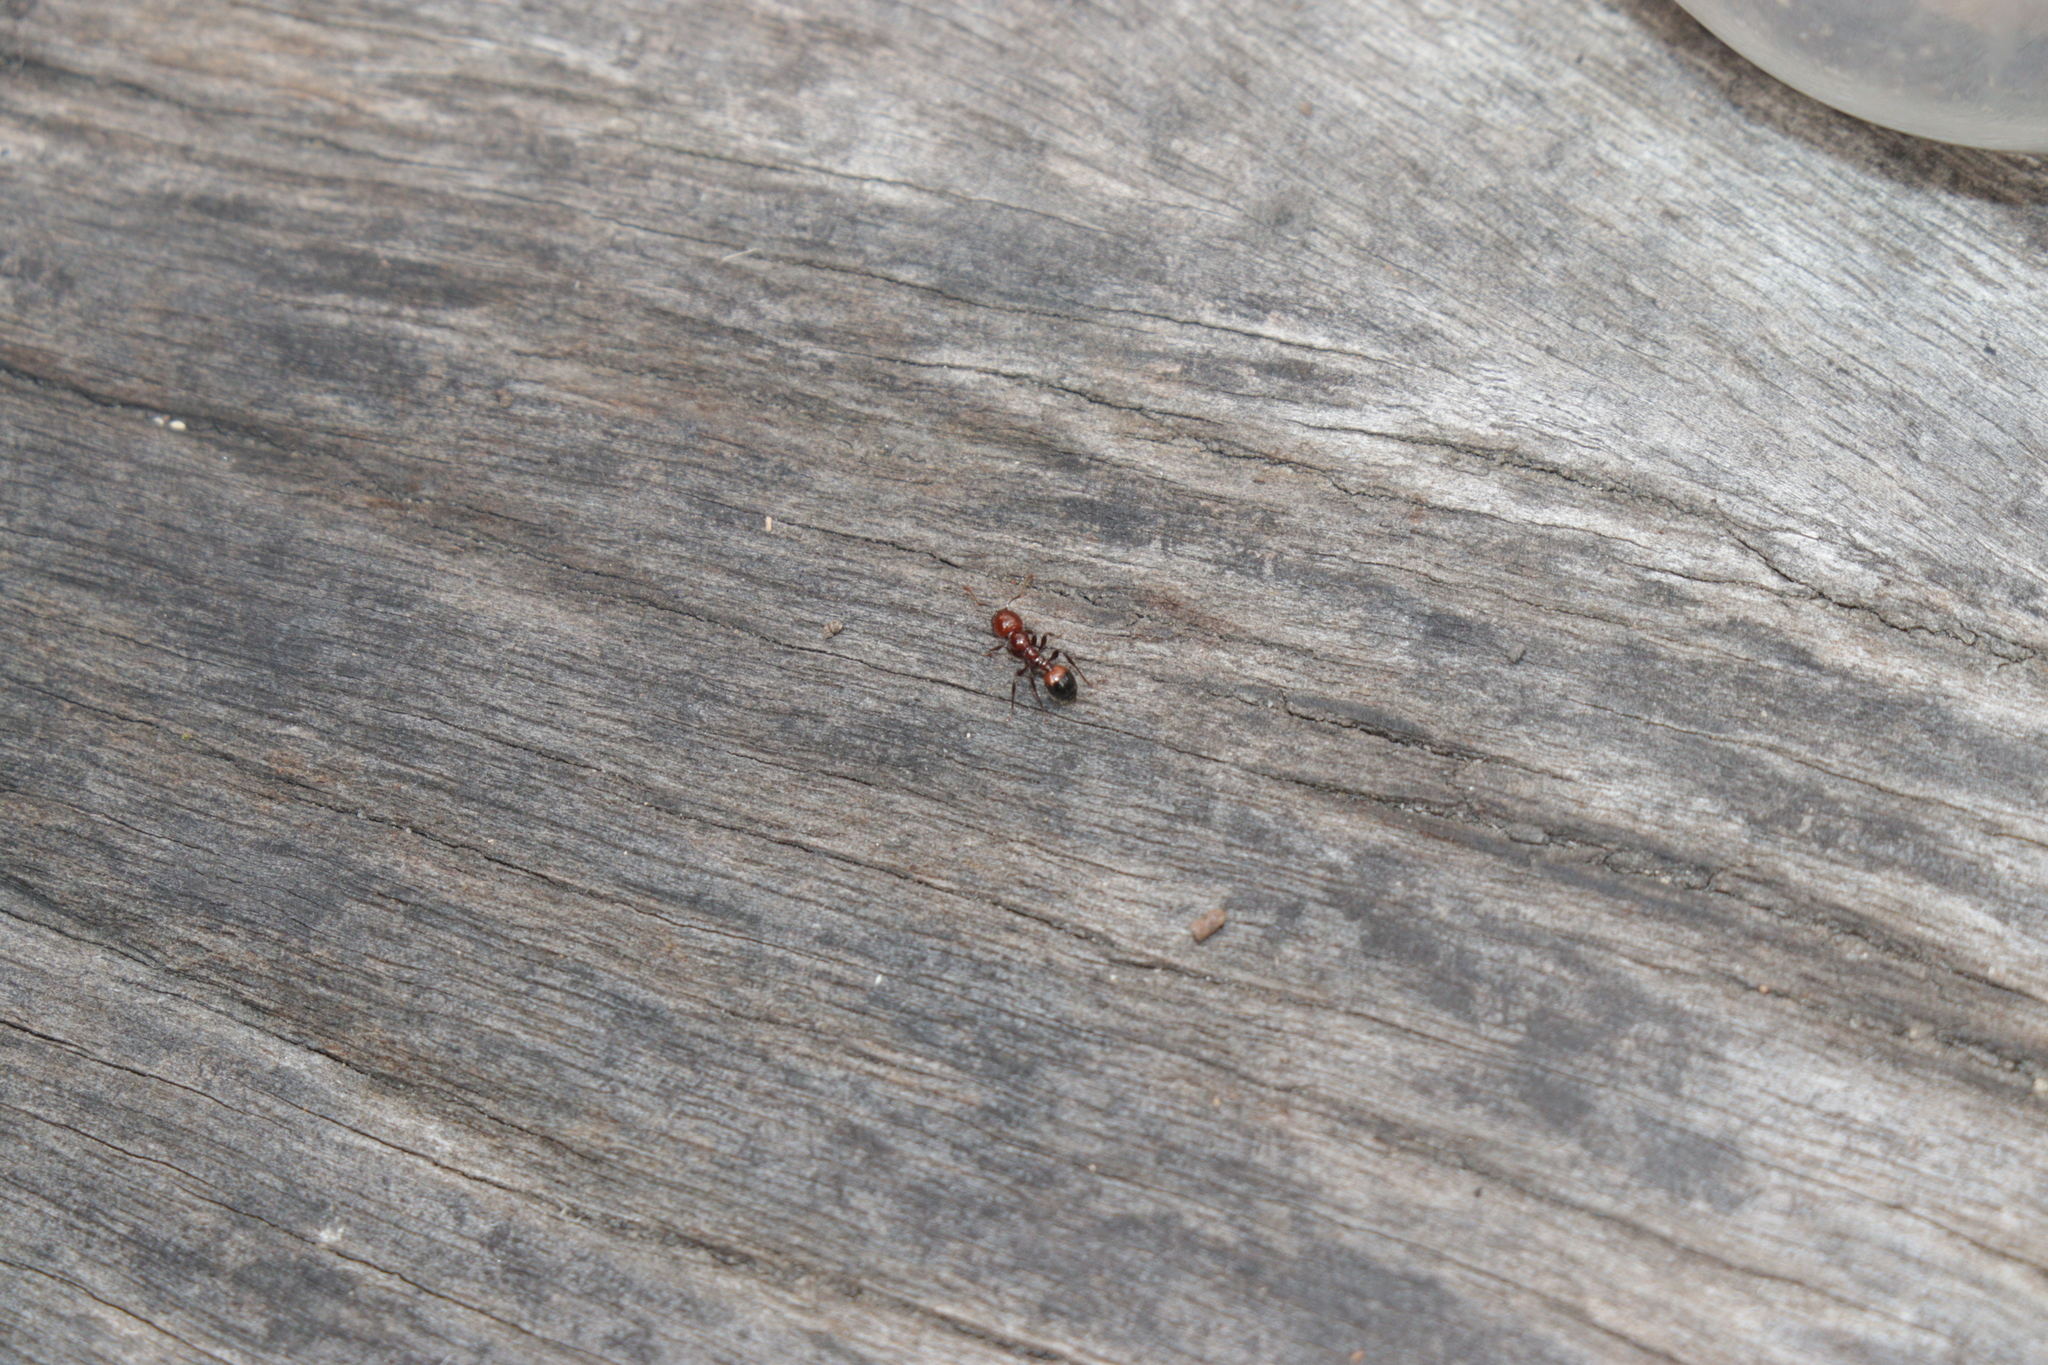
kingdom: Animalia
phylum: Arthropoda
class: Insecta
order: Hymenoptera
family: Formicidae
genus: Chelaner
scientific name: Chelaner
